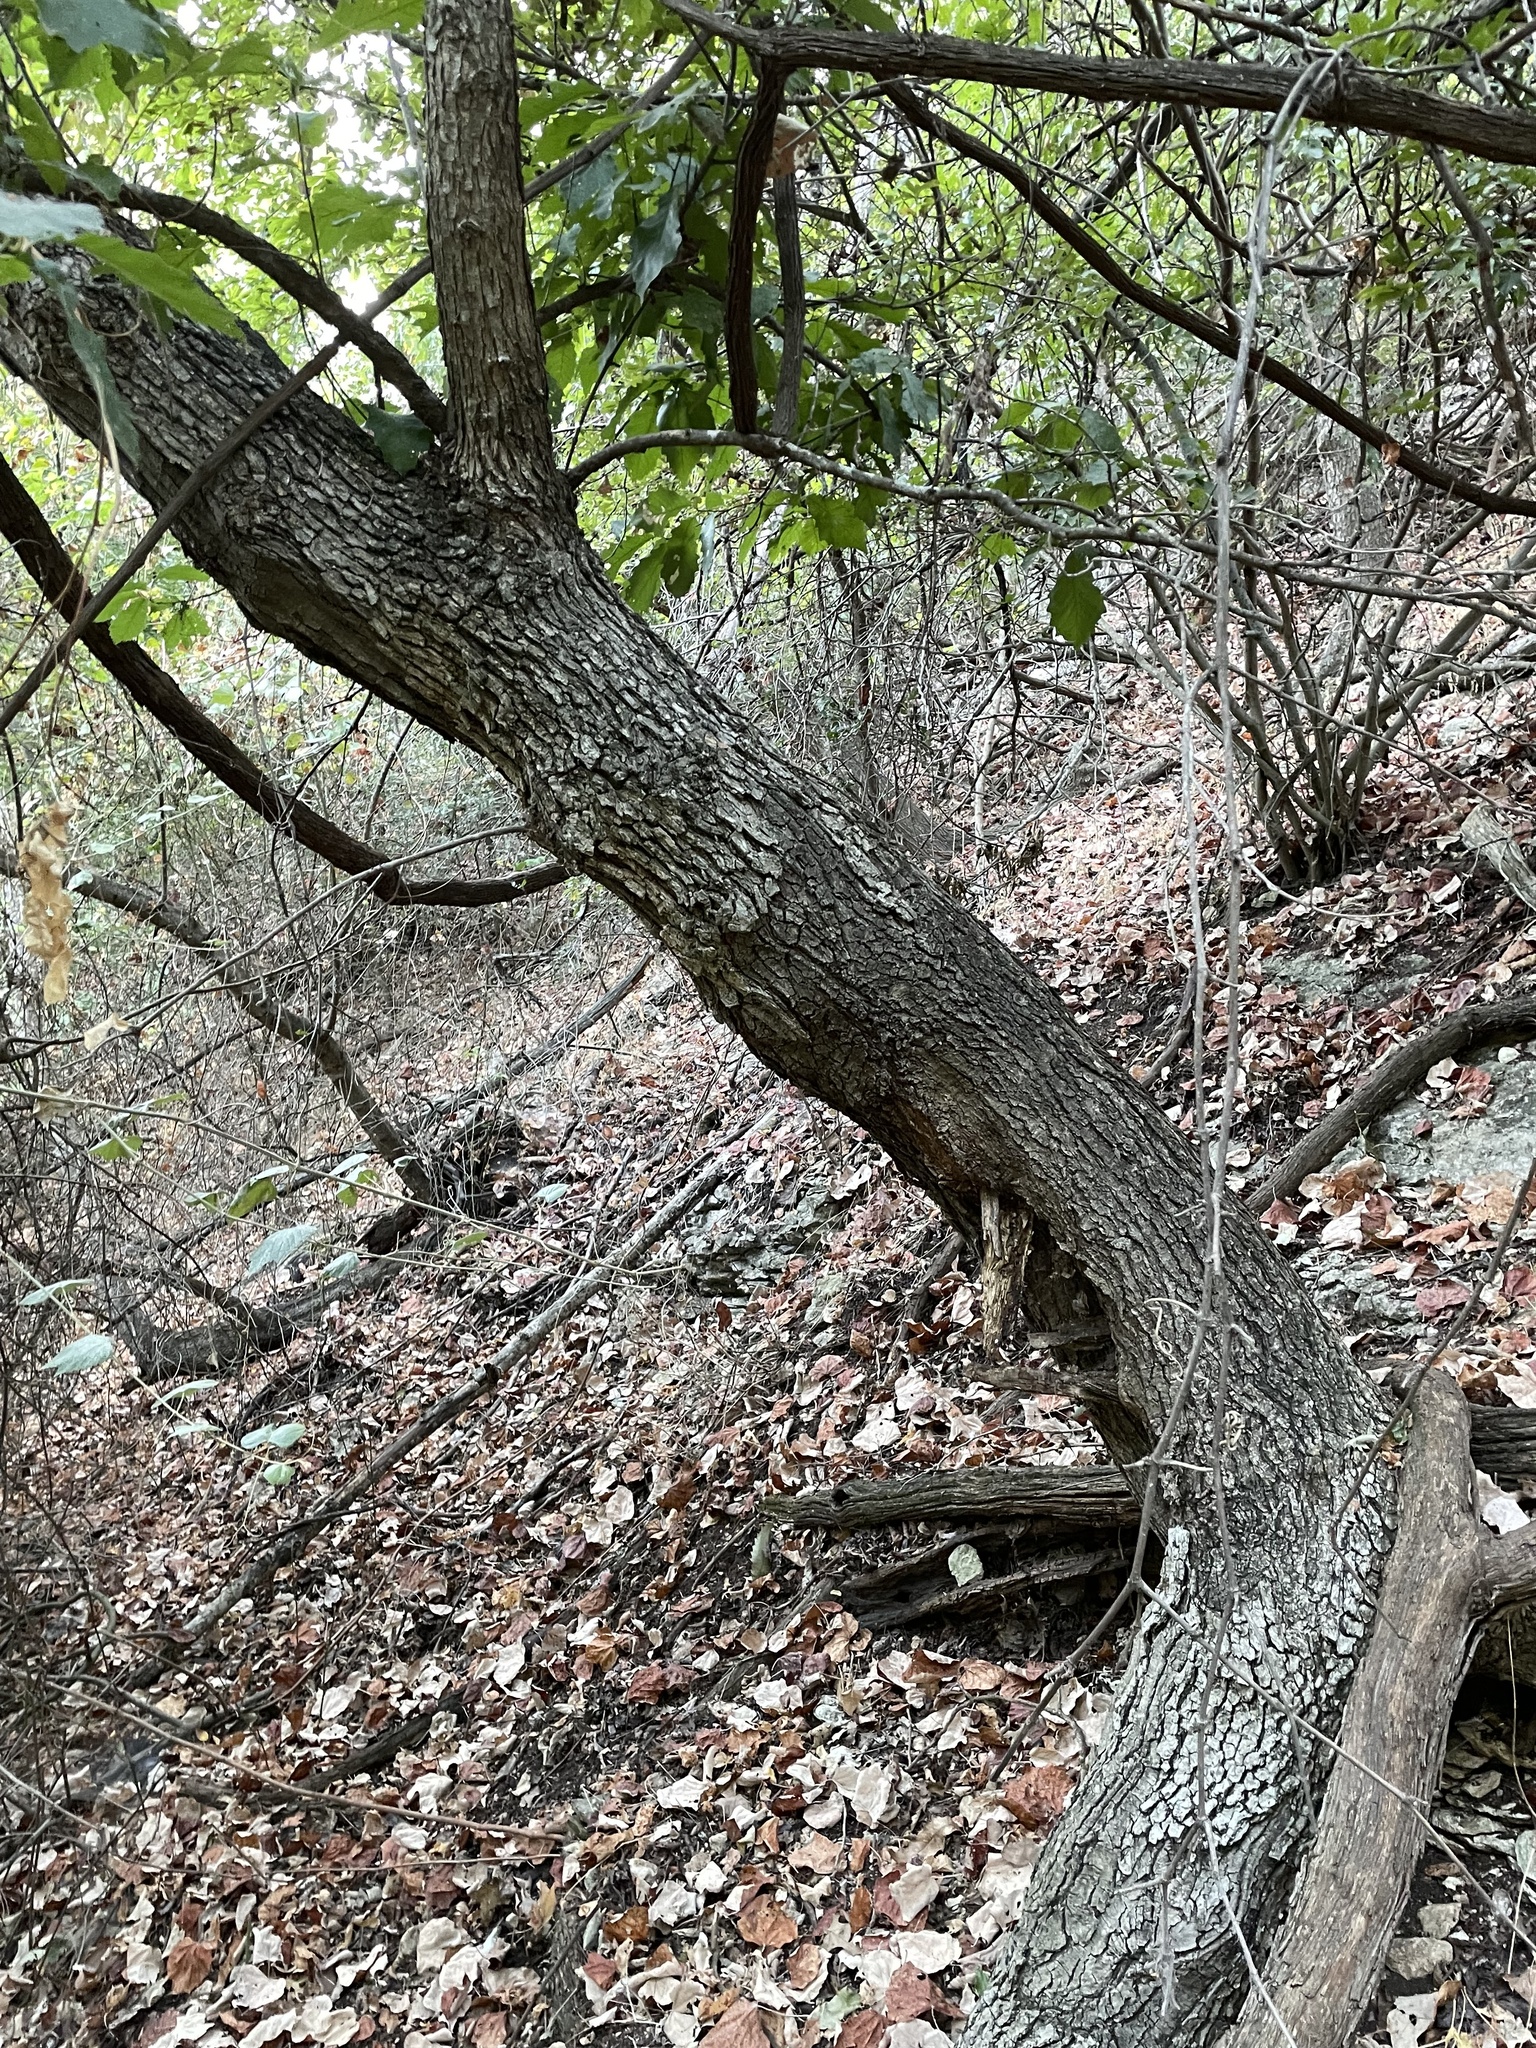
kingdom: Plantae
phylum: Tracheophyta
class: Magnoliopsida
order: Fagales
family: Fagaceae
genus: Quercus
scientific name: Quercus muehlenbergii
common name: Chinkapin oak
